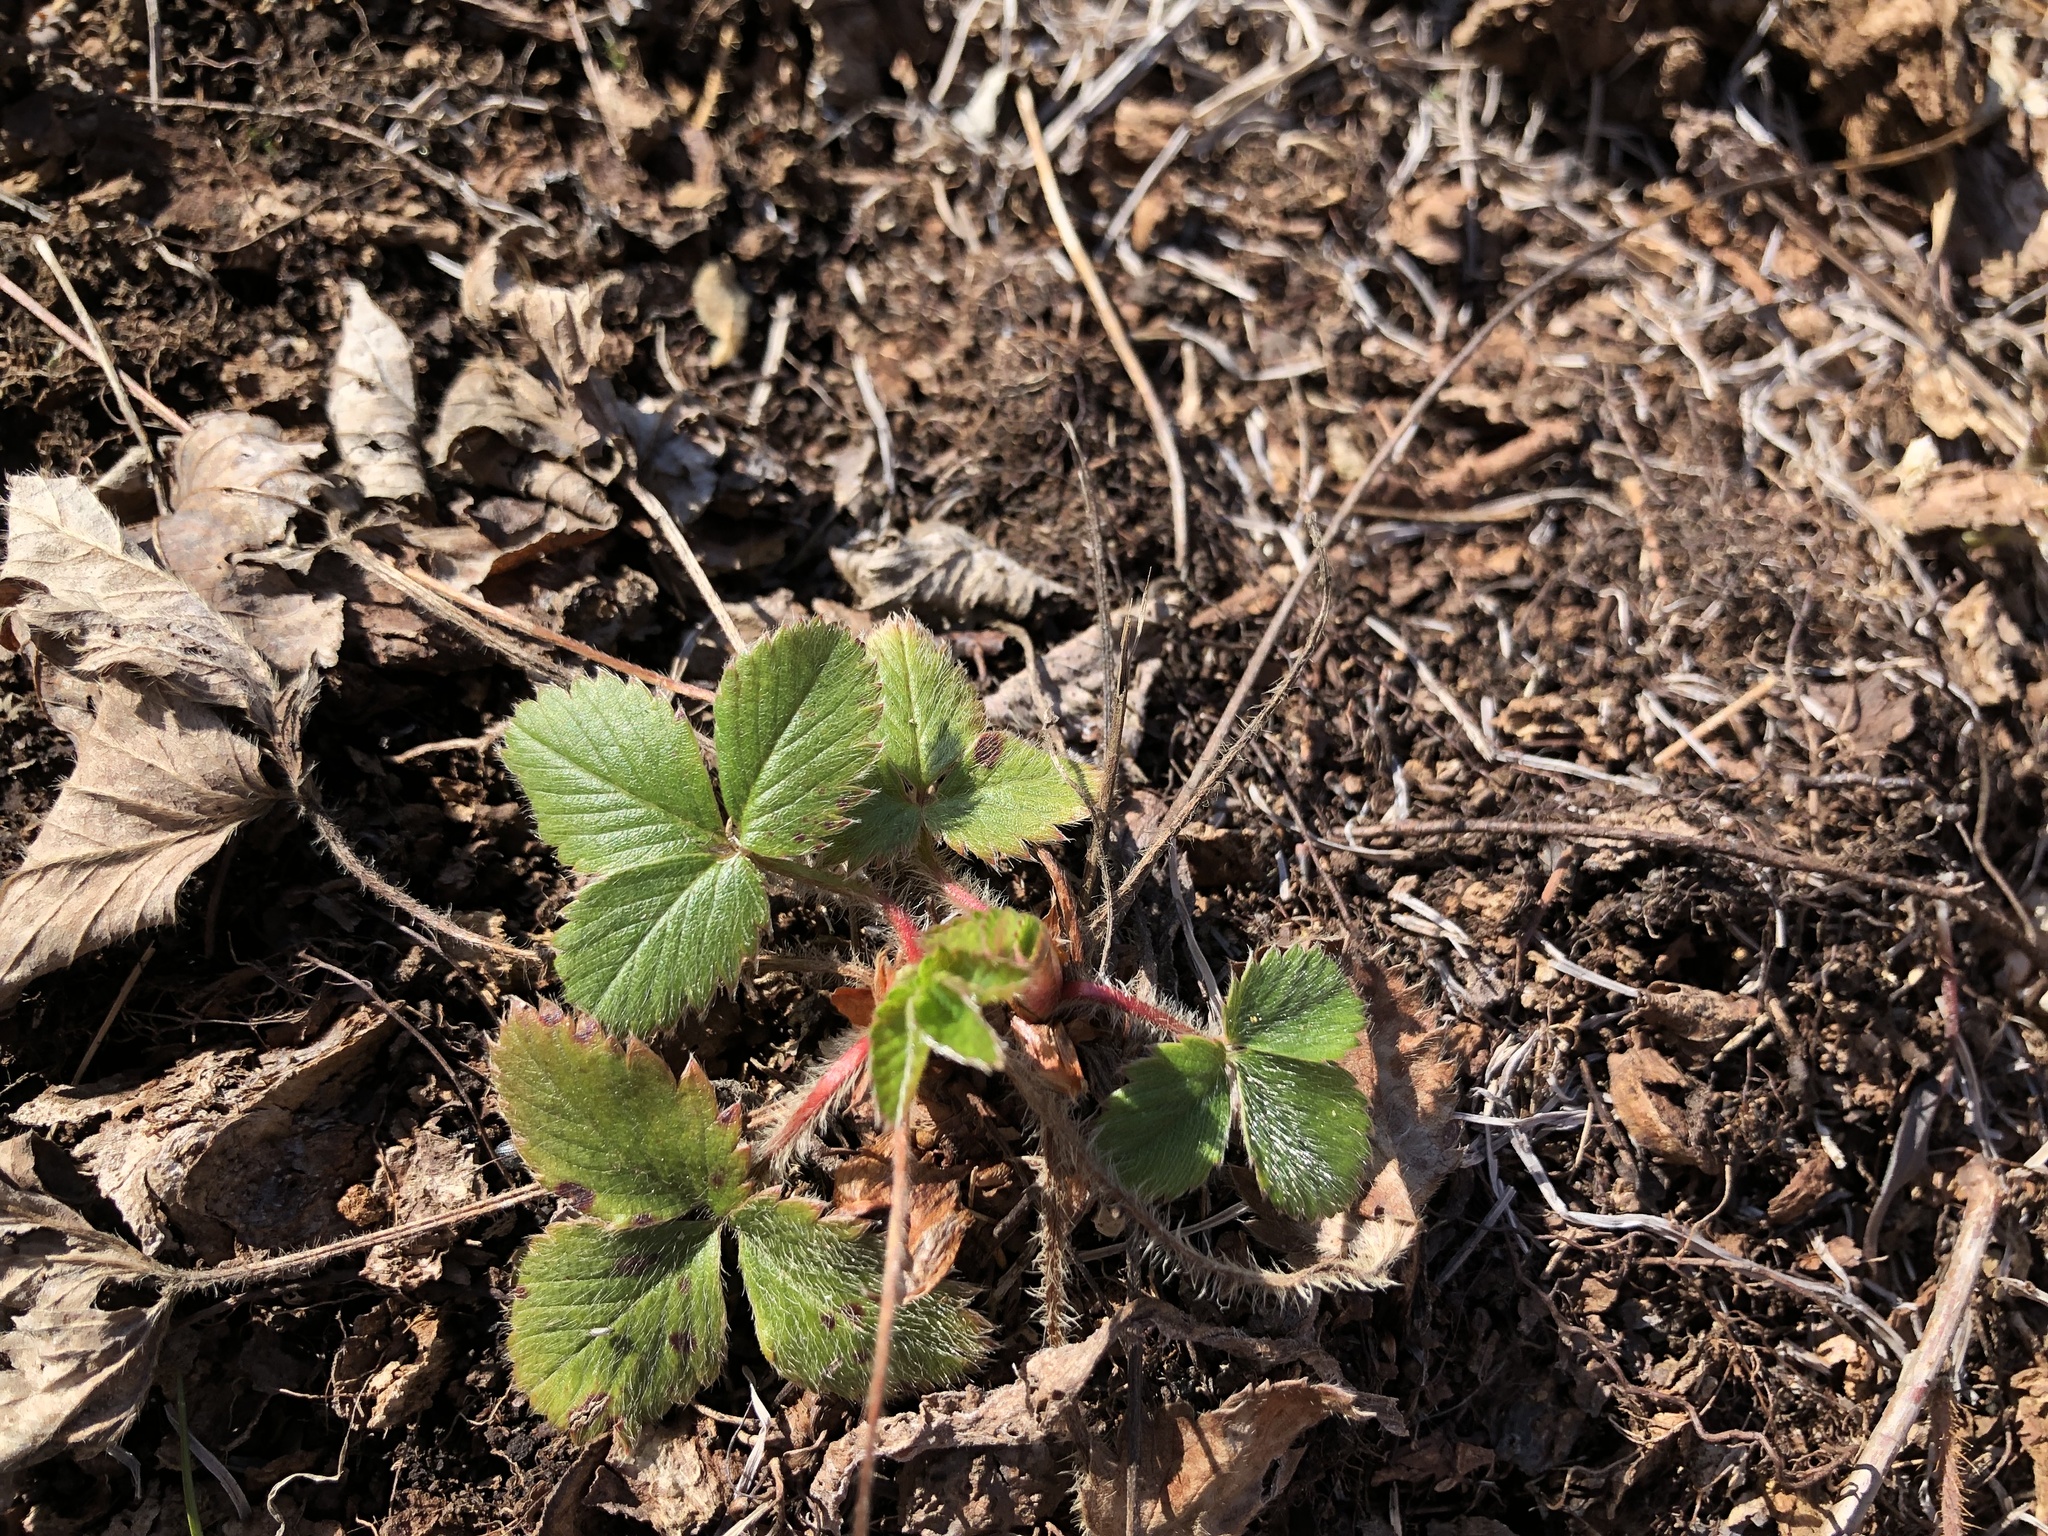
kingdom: Plantae
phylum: Tracheophyta
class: Magnoliopsida
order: Rosales
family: Rosaceae
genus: Fragaria
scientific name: Fragaria virginiana
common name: Thickleaved wild strawberry
